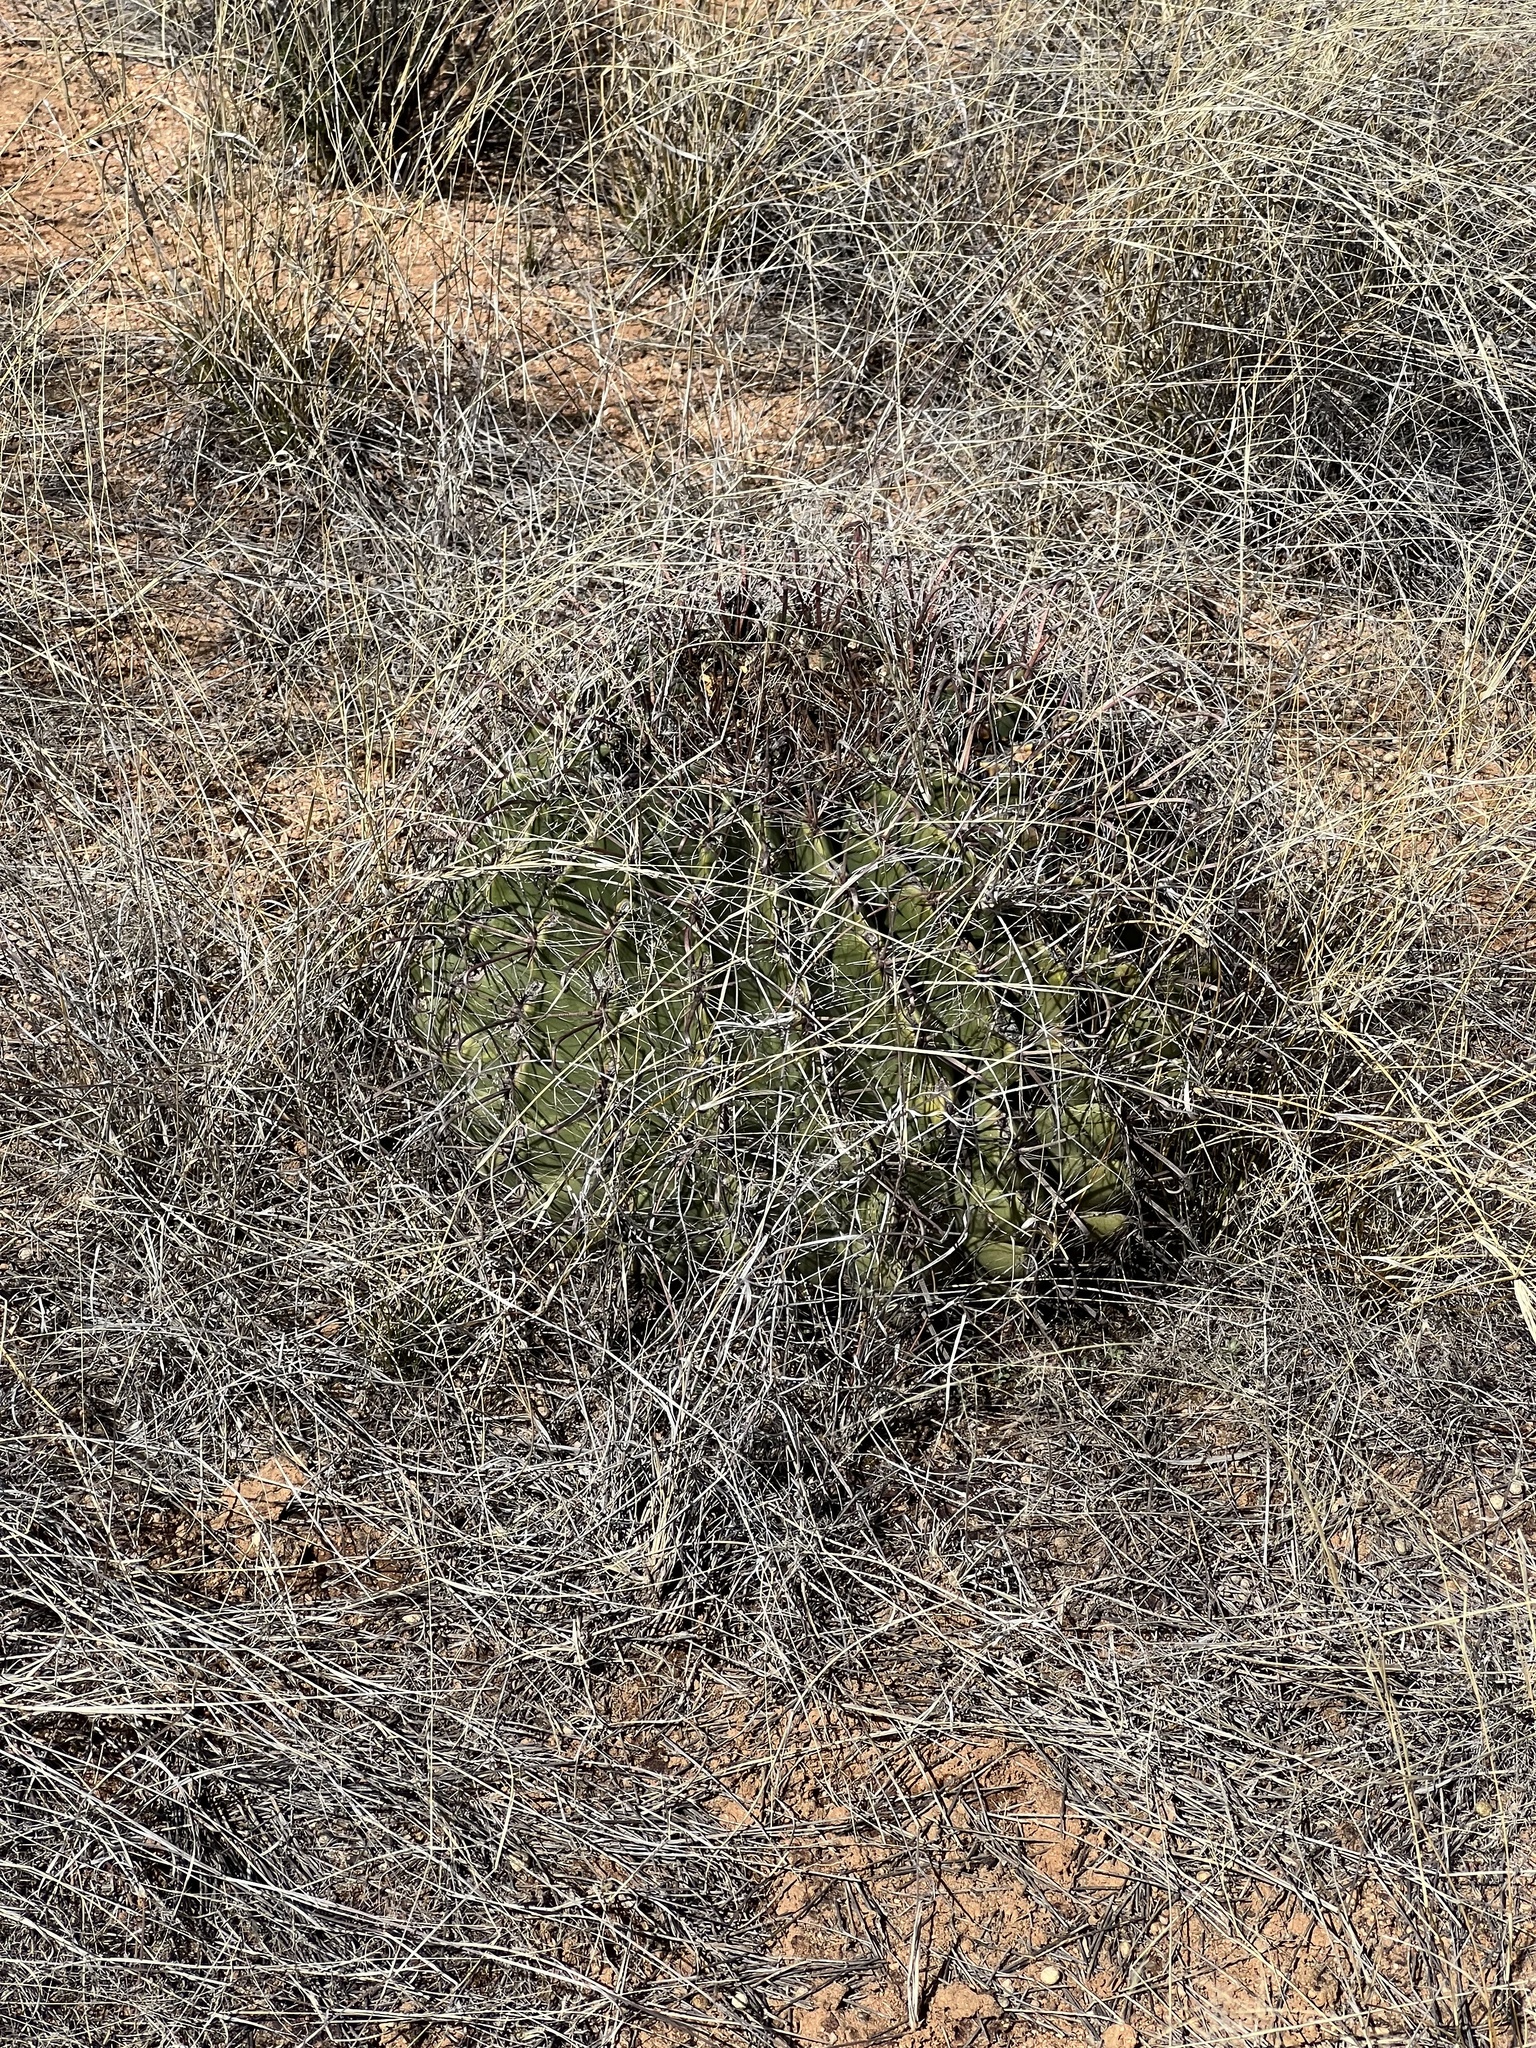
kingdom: Plantae
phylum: Tracheophyta
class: Magnoliopsida
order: Caryophyllales
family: Cactaceae
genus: Ferocactus
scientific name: Ferocactus wislizeni
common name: Candy barrel cactus
